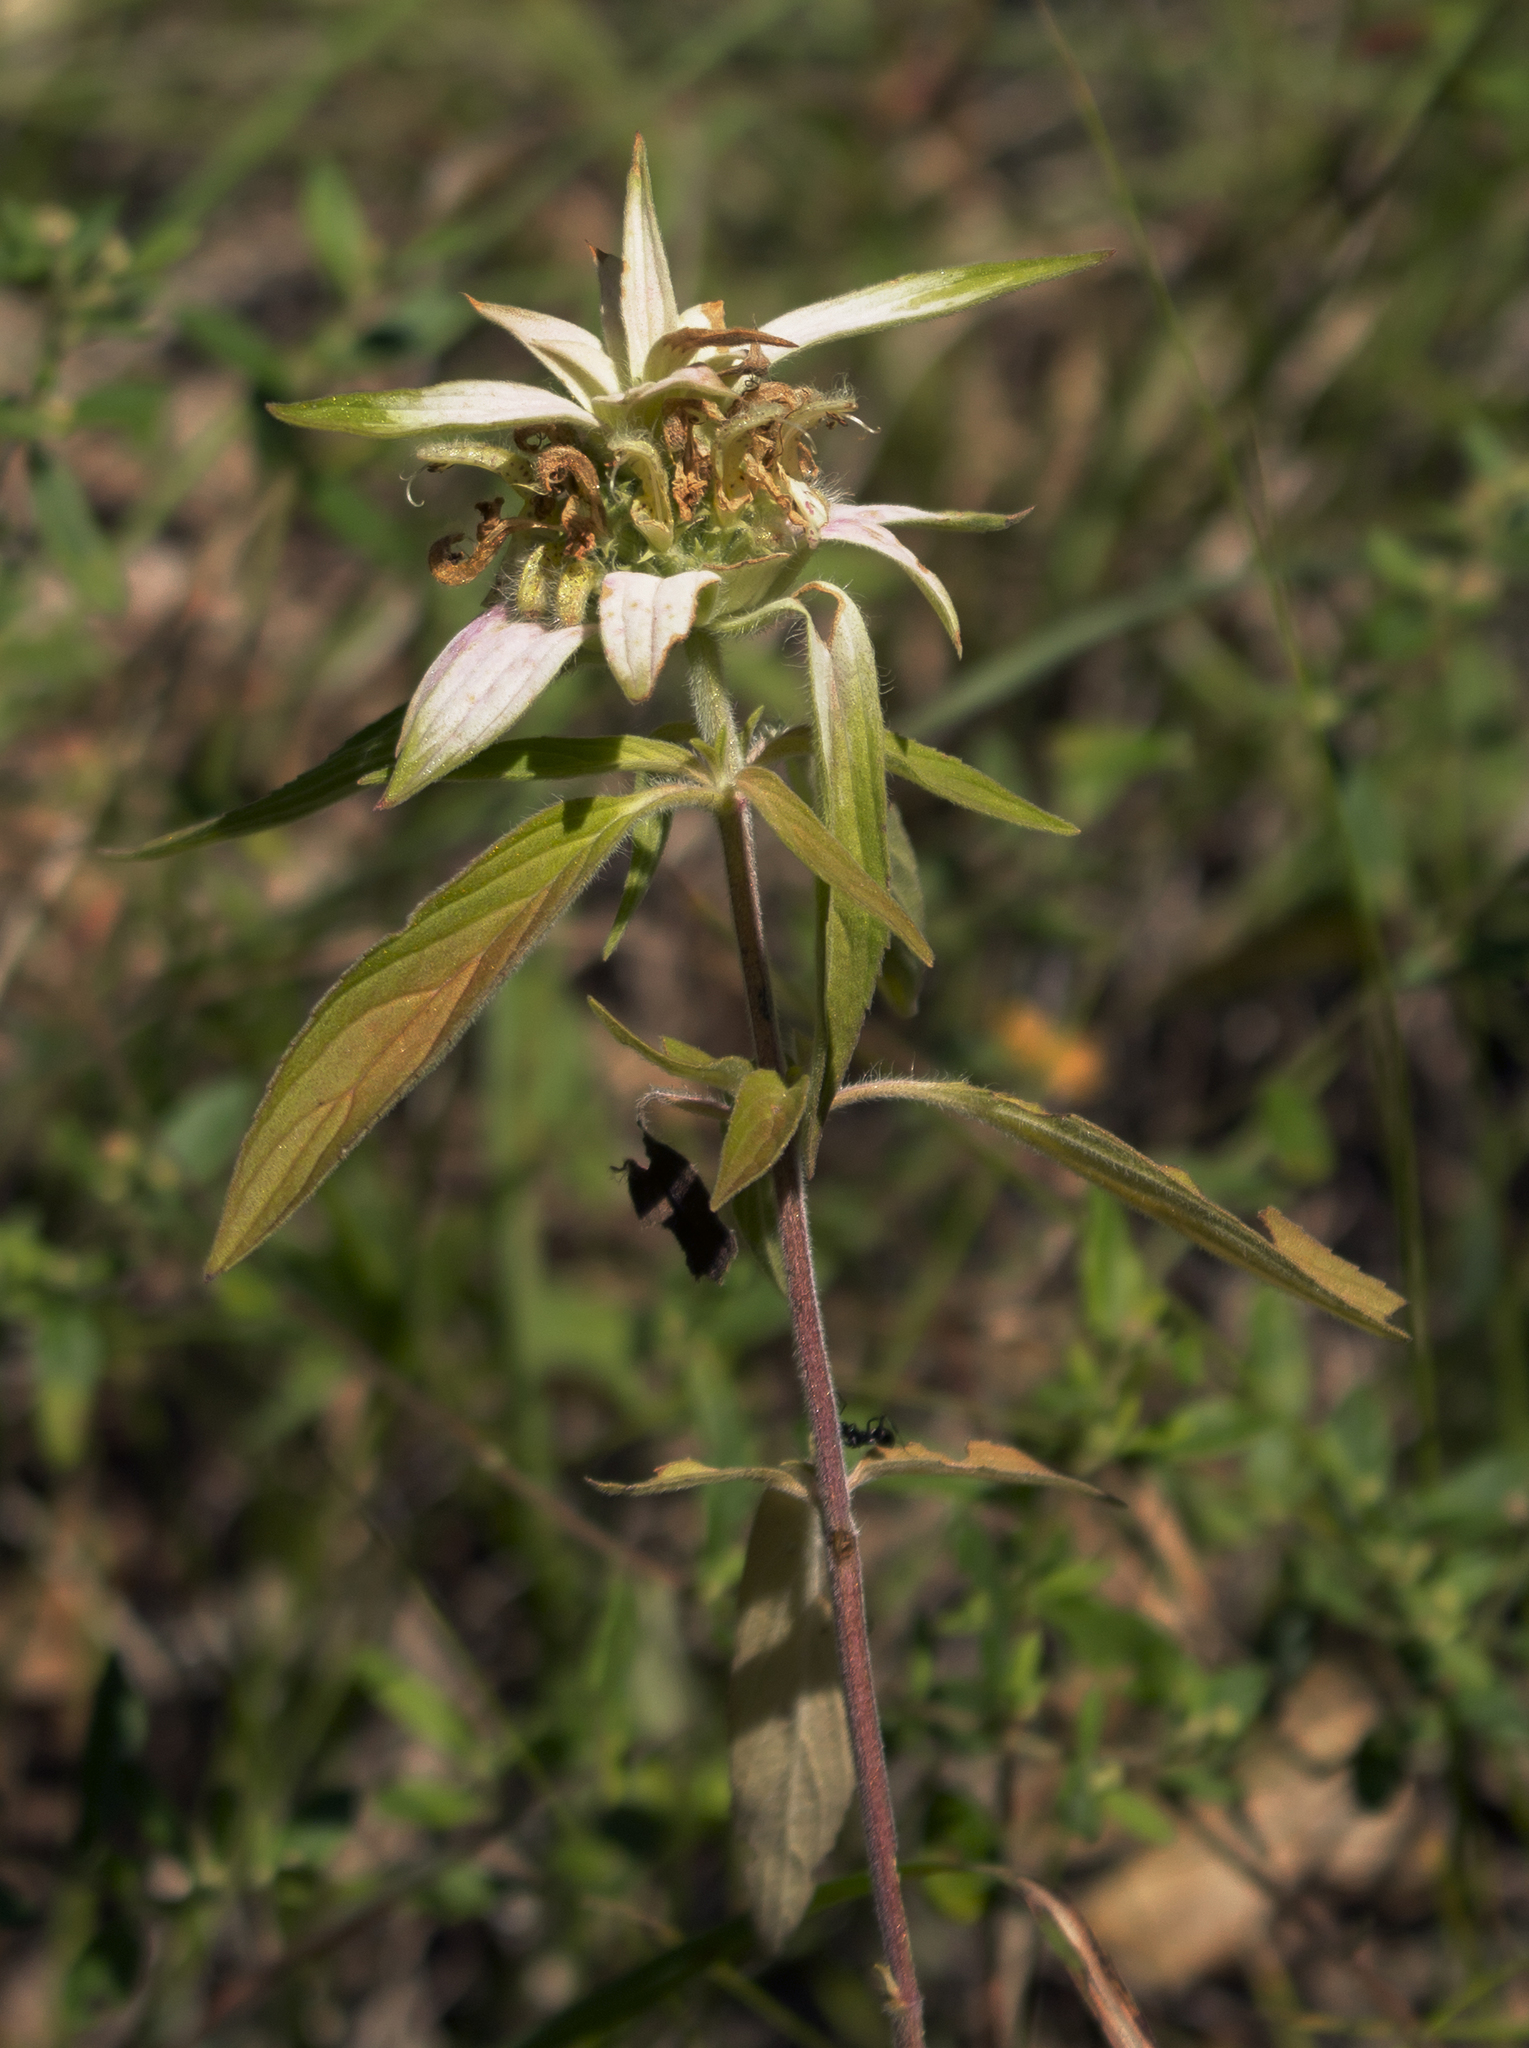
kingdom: Plantae
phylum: Tracheophyta
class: Magnoliopsida
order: Lamiales
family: Lamiaceae
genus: Monarda
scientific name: Monarda punctata
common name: Dotted monarda
